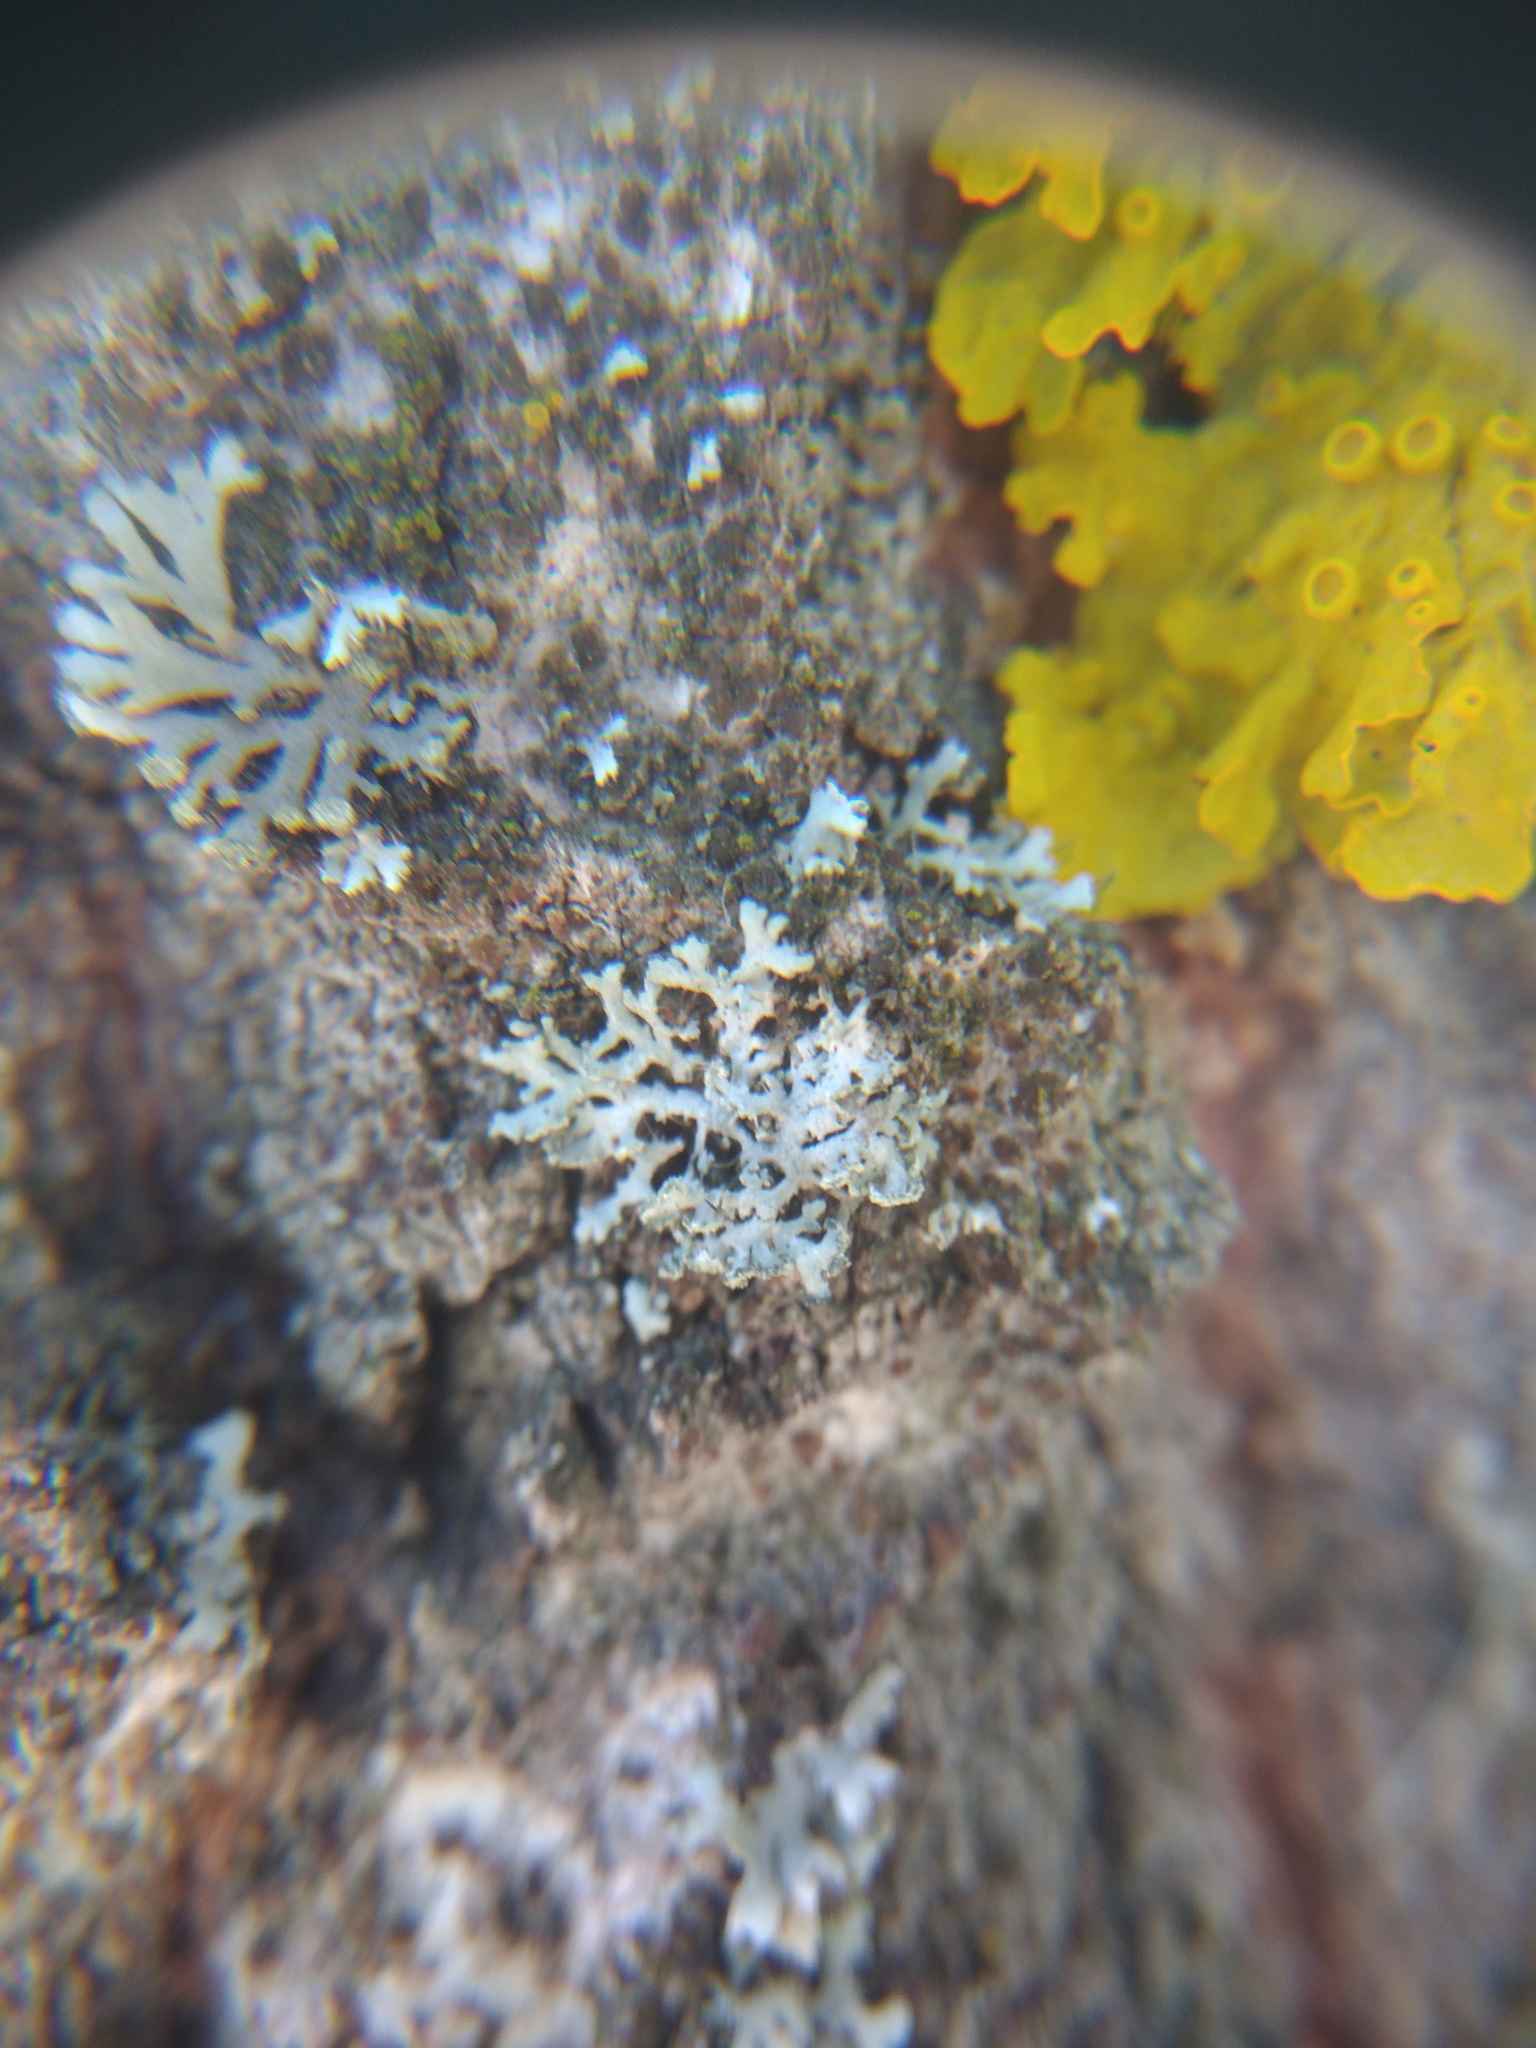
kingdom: Fungi
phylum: Ascomycota
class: Lecanoromycetes
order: Caliciales
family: Physciaceae
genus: Physcia
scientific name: Physcia tenella
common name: Fringed rosette lichen
